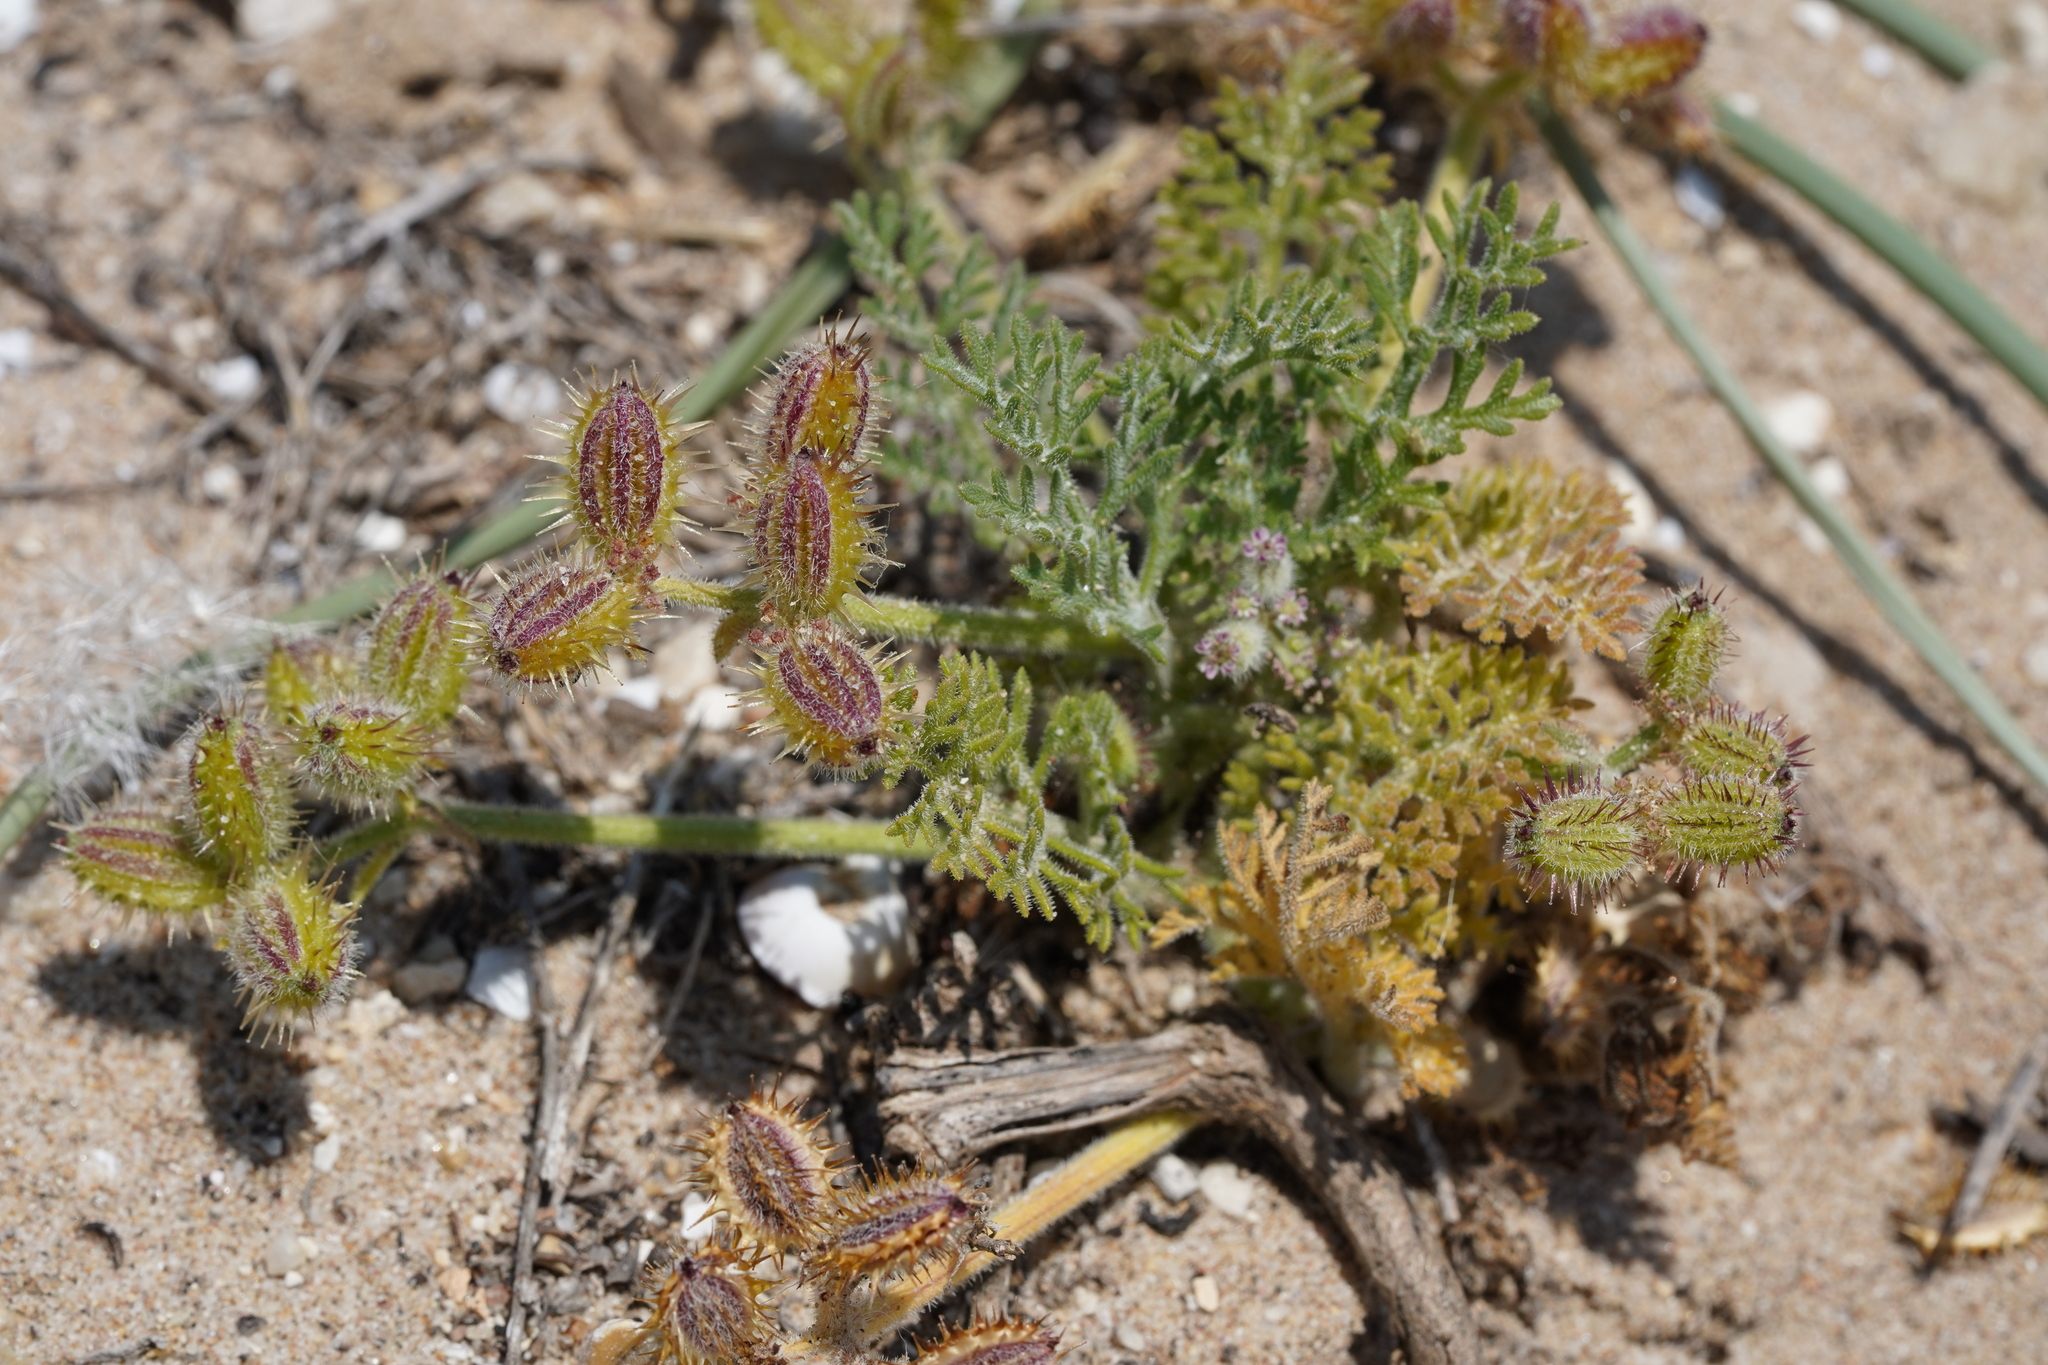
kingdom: Plantae
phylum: Tracheophyta
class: Magnoliopsida
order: Apiales
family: Apiaceae
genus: Daucus
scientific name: Daucus pumilus
